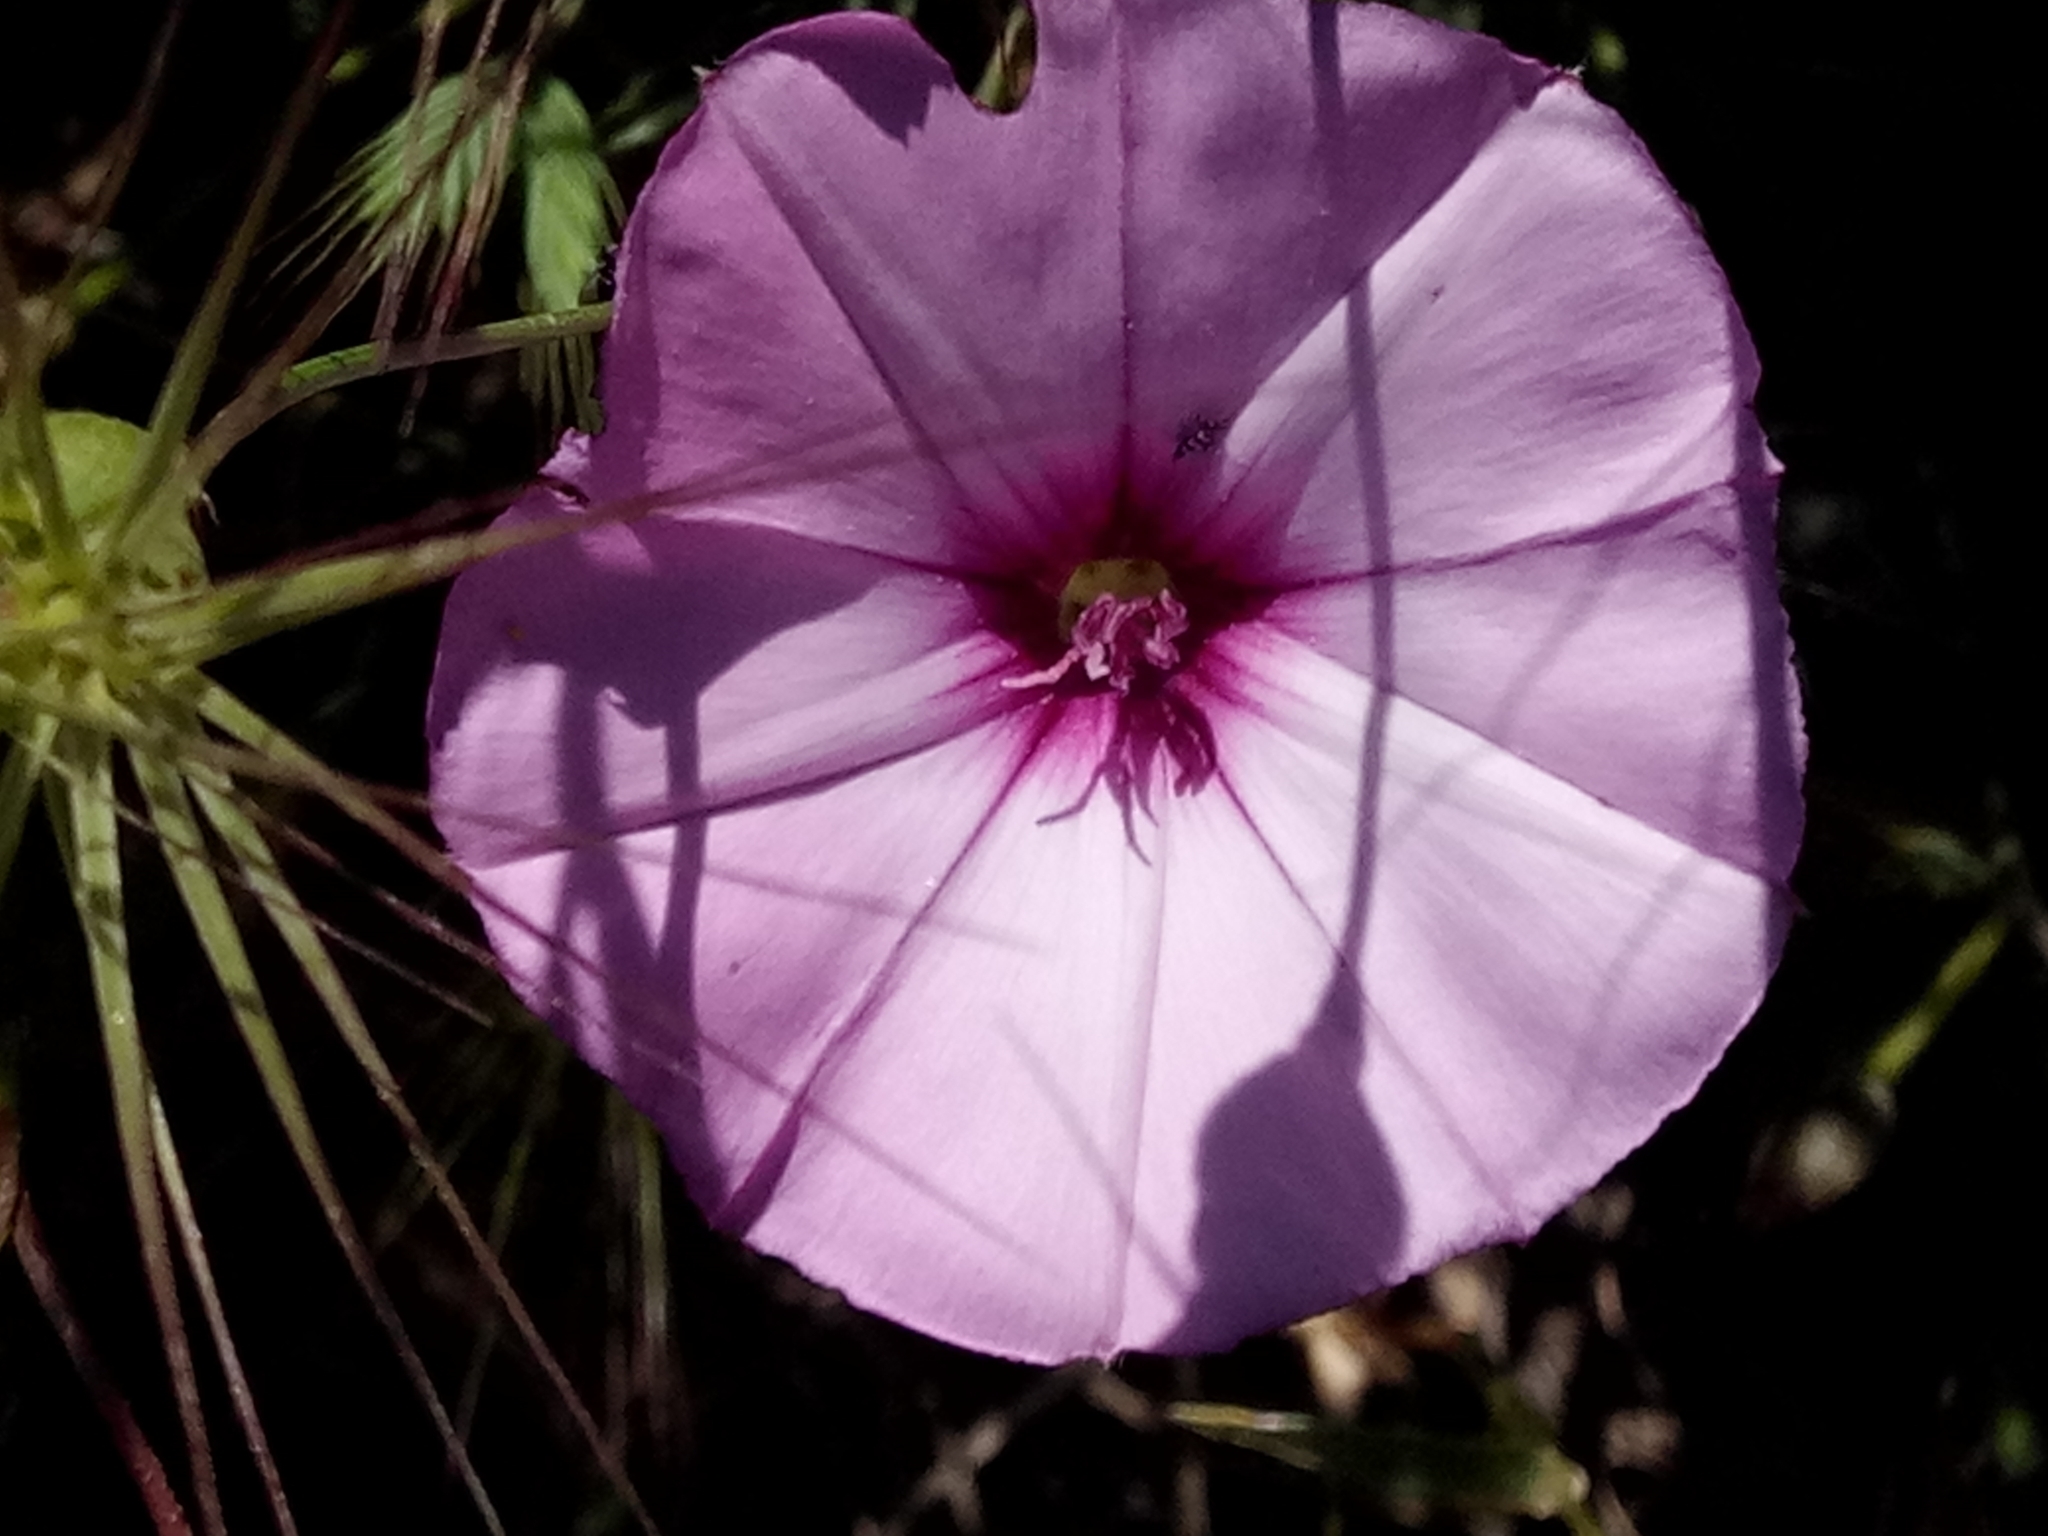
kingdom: Plantae
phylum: Tracheophyta
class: Magnoliopsida
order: Solanales
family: Convolvulaceae
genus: Convolvulus
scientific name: Convolvulus althaeoides
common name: Mallow bindweed
